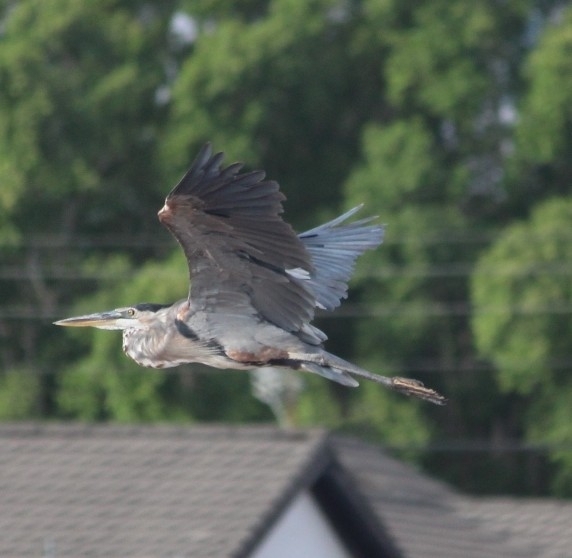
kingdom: Animalia
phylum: Chordata
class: Aves
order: Pelecaniformes
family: Ardeidae
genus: Ardea
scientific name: Ardea herodias
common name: Great blue heron
